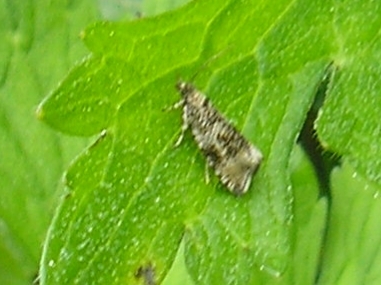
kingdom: Animalia
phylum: Arthropoda
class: Insecta
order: Lepidoptera
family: Tortricidae
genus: Syricoris
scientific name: Syricoris lacunana
